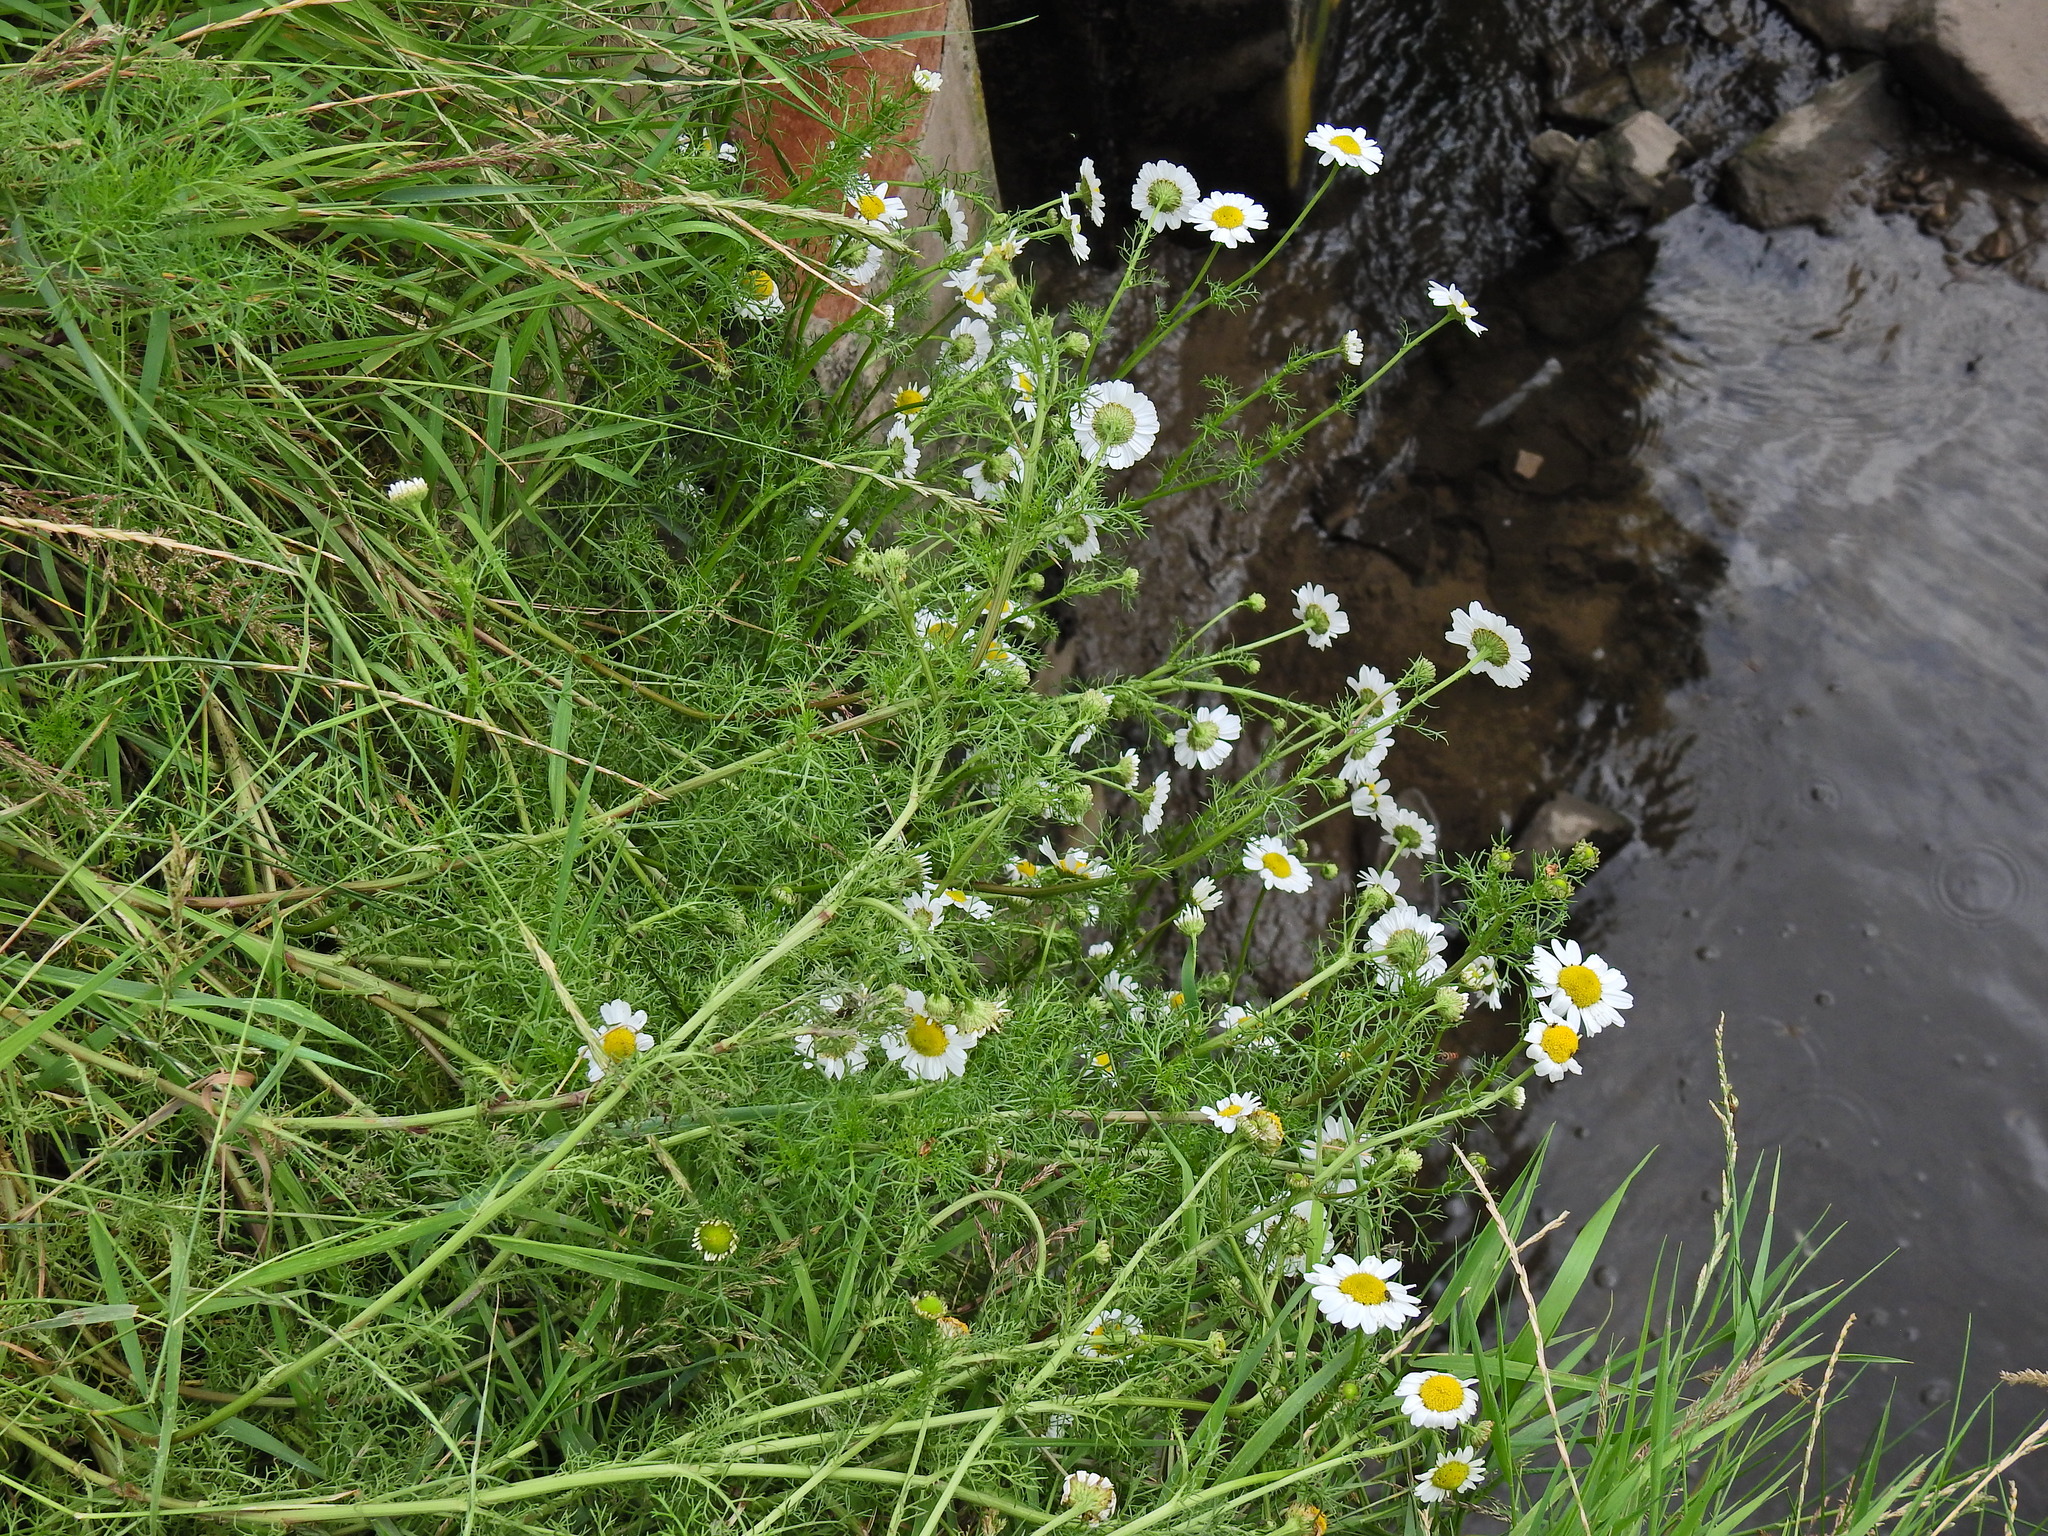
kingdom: Plantae
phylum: Tracheophyta
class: Magnoliopsida
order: Asterales
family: Asteraceae
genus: Matricaria
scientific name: Matricaria chamomilla
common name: Scented mayweed
